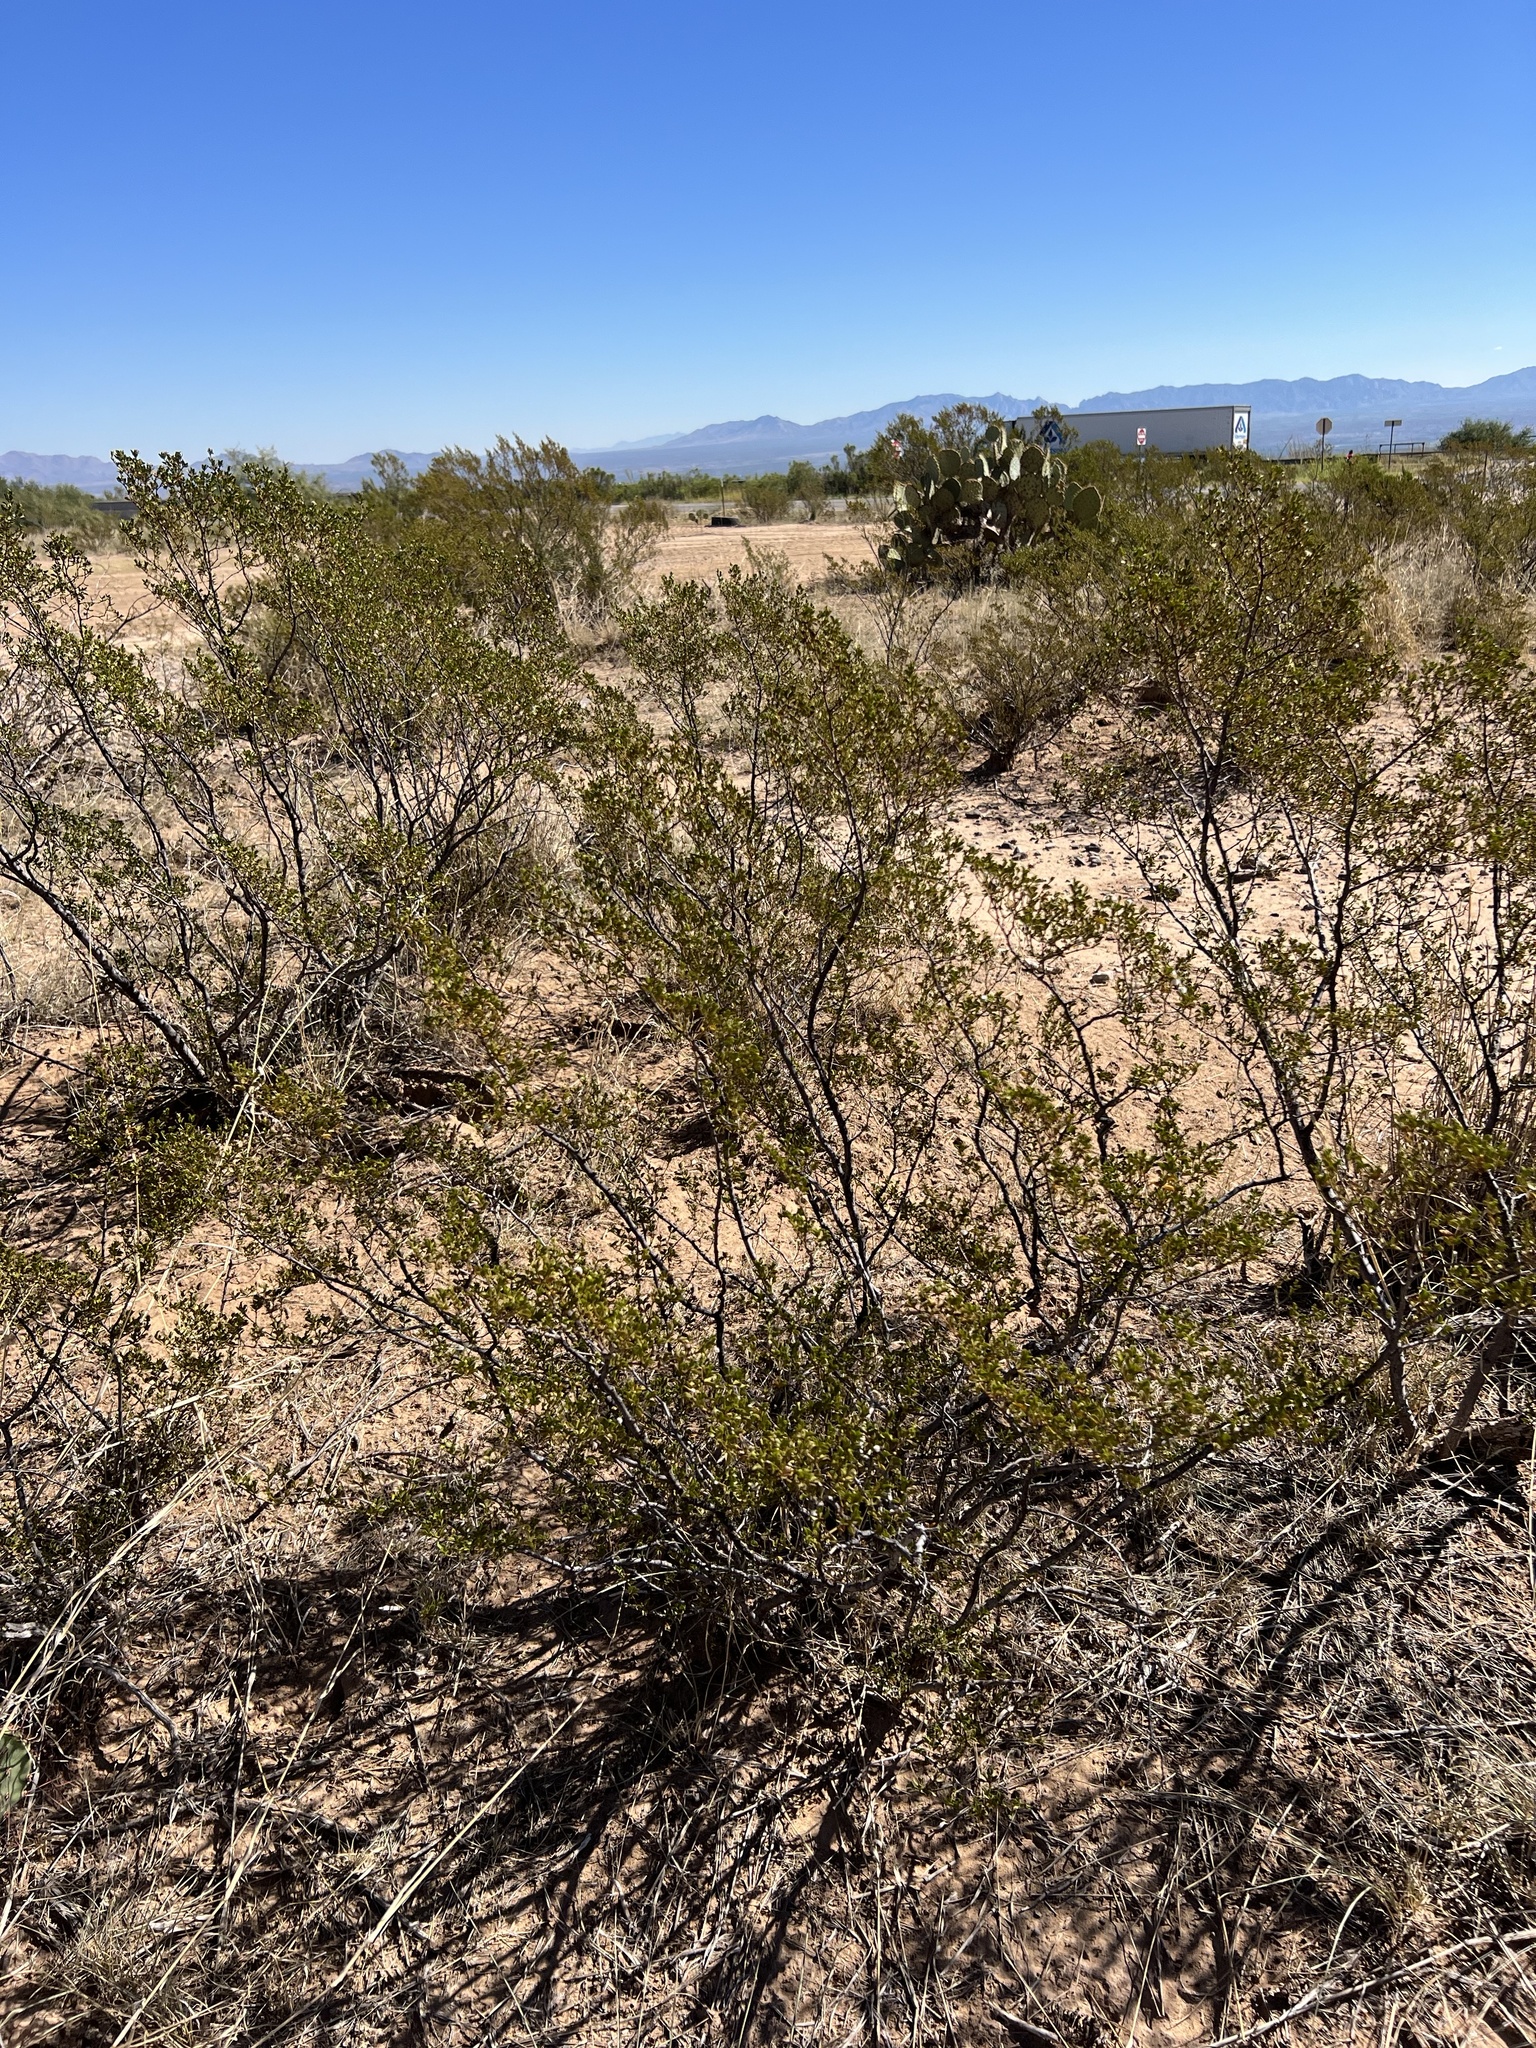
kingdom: Plantae
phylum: Tracheophyta
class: Magnoliopsida
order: Zygophyllales
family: Zygophyllaceae
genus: Larrea
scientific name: Larrea tridentata
